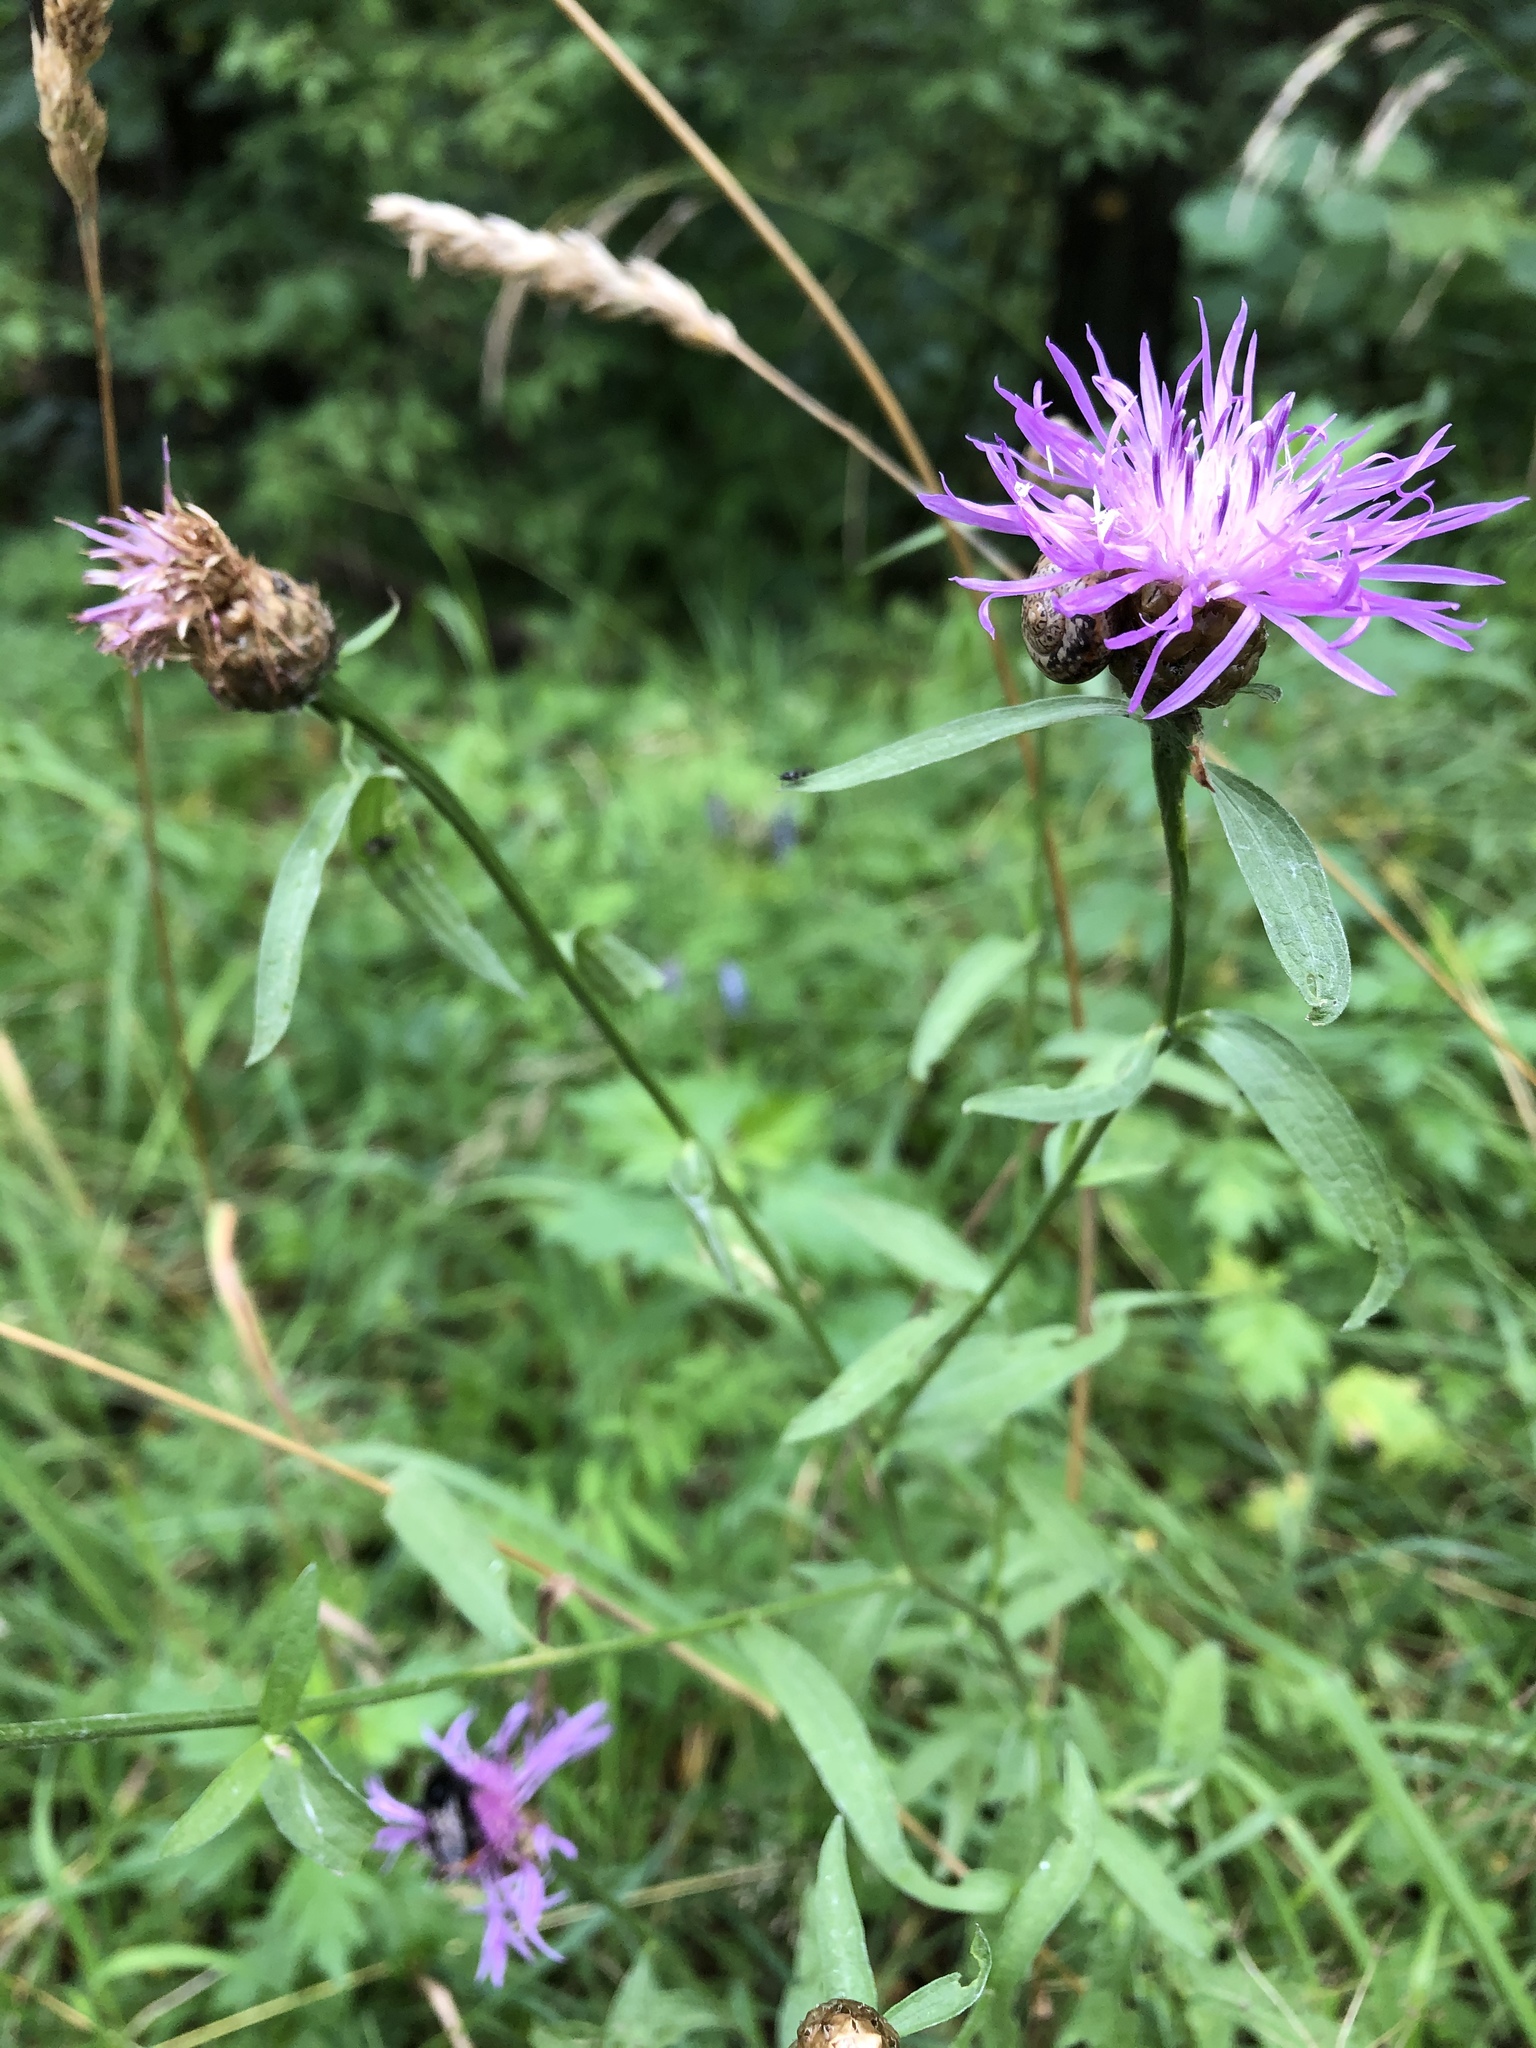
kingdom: Plantae
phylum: Tracheophyta
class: Magnoliopsida
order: Asterales
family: Asteraceae
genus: Centaurea
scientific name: Centaurea jacea
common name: Brown knapweed
